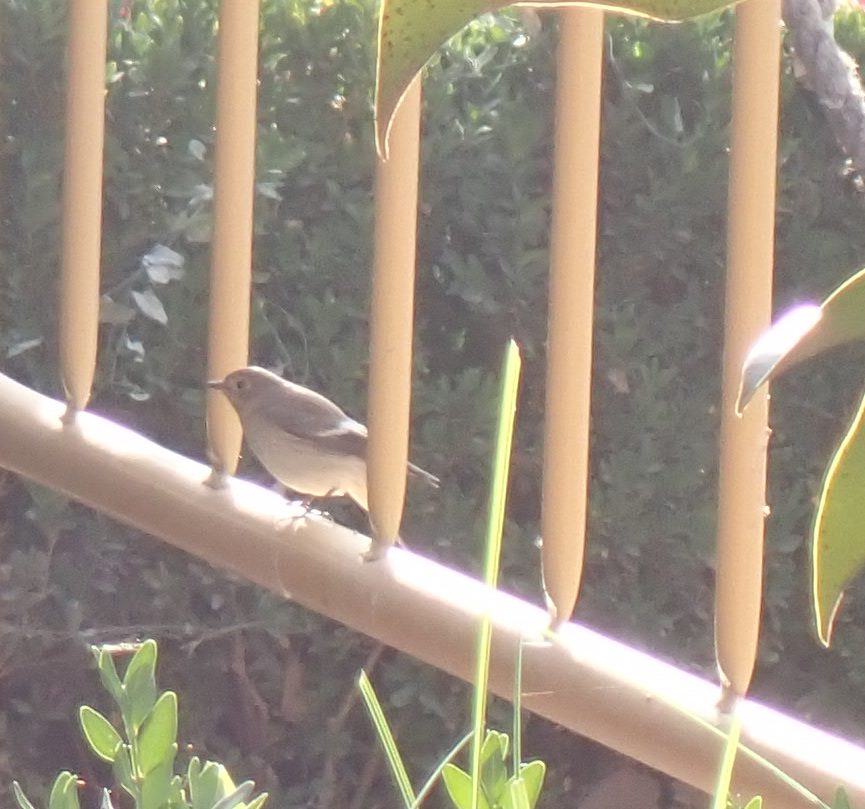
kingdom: Animalia
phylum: Chordata
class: Aves
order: Passeriformes
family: Muscicapidae
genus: Ficedula
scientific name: Ficedula hypoleuca
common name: European pied flycatcher
